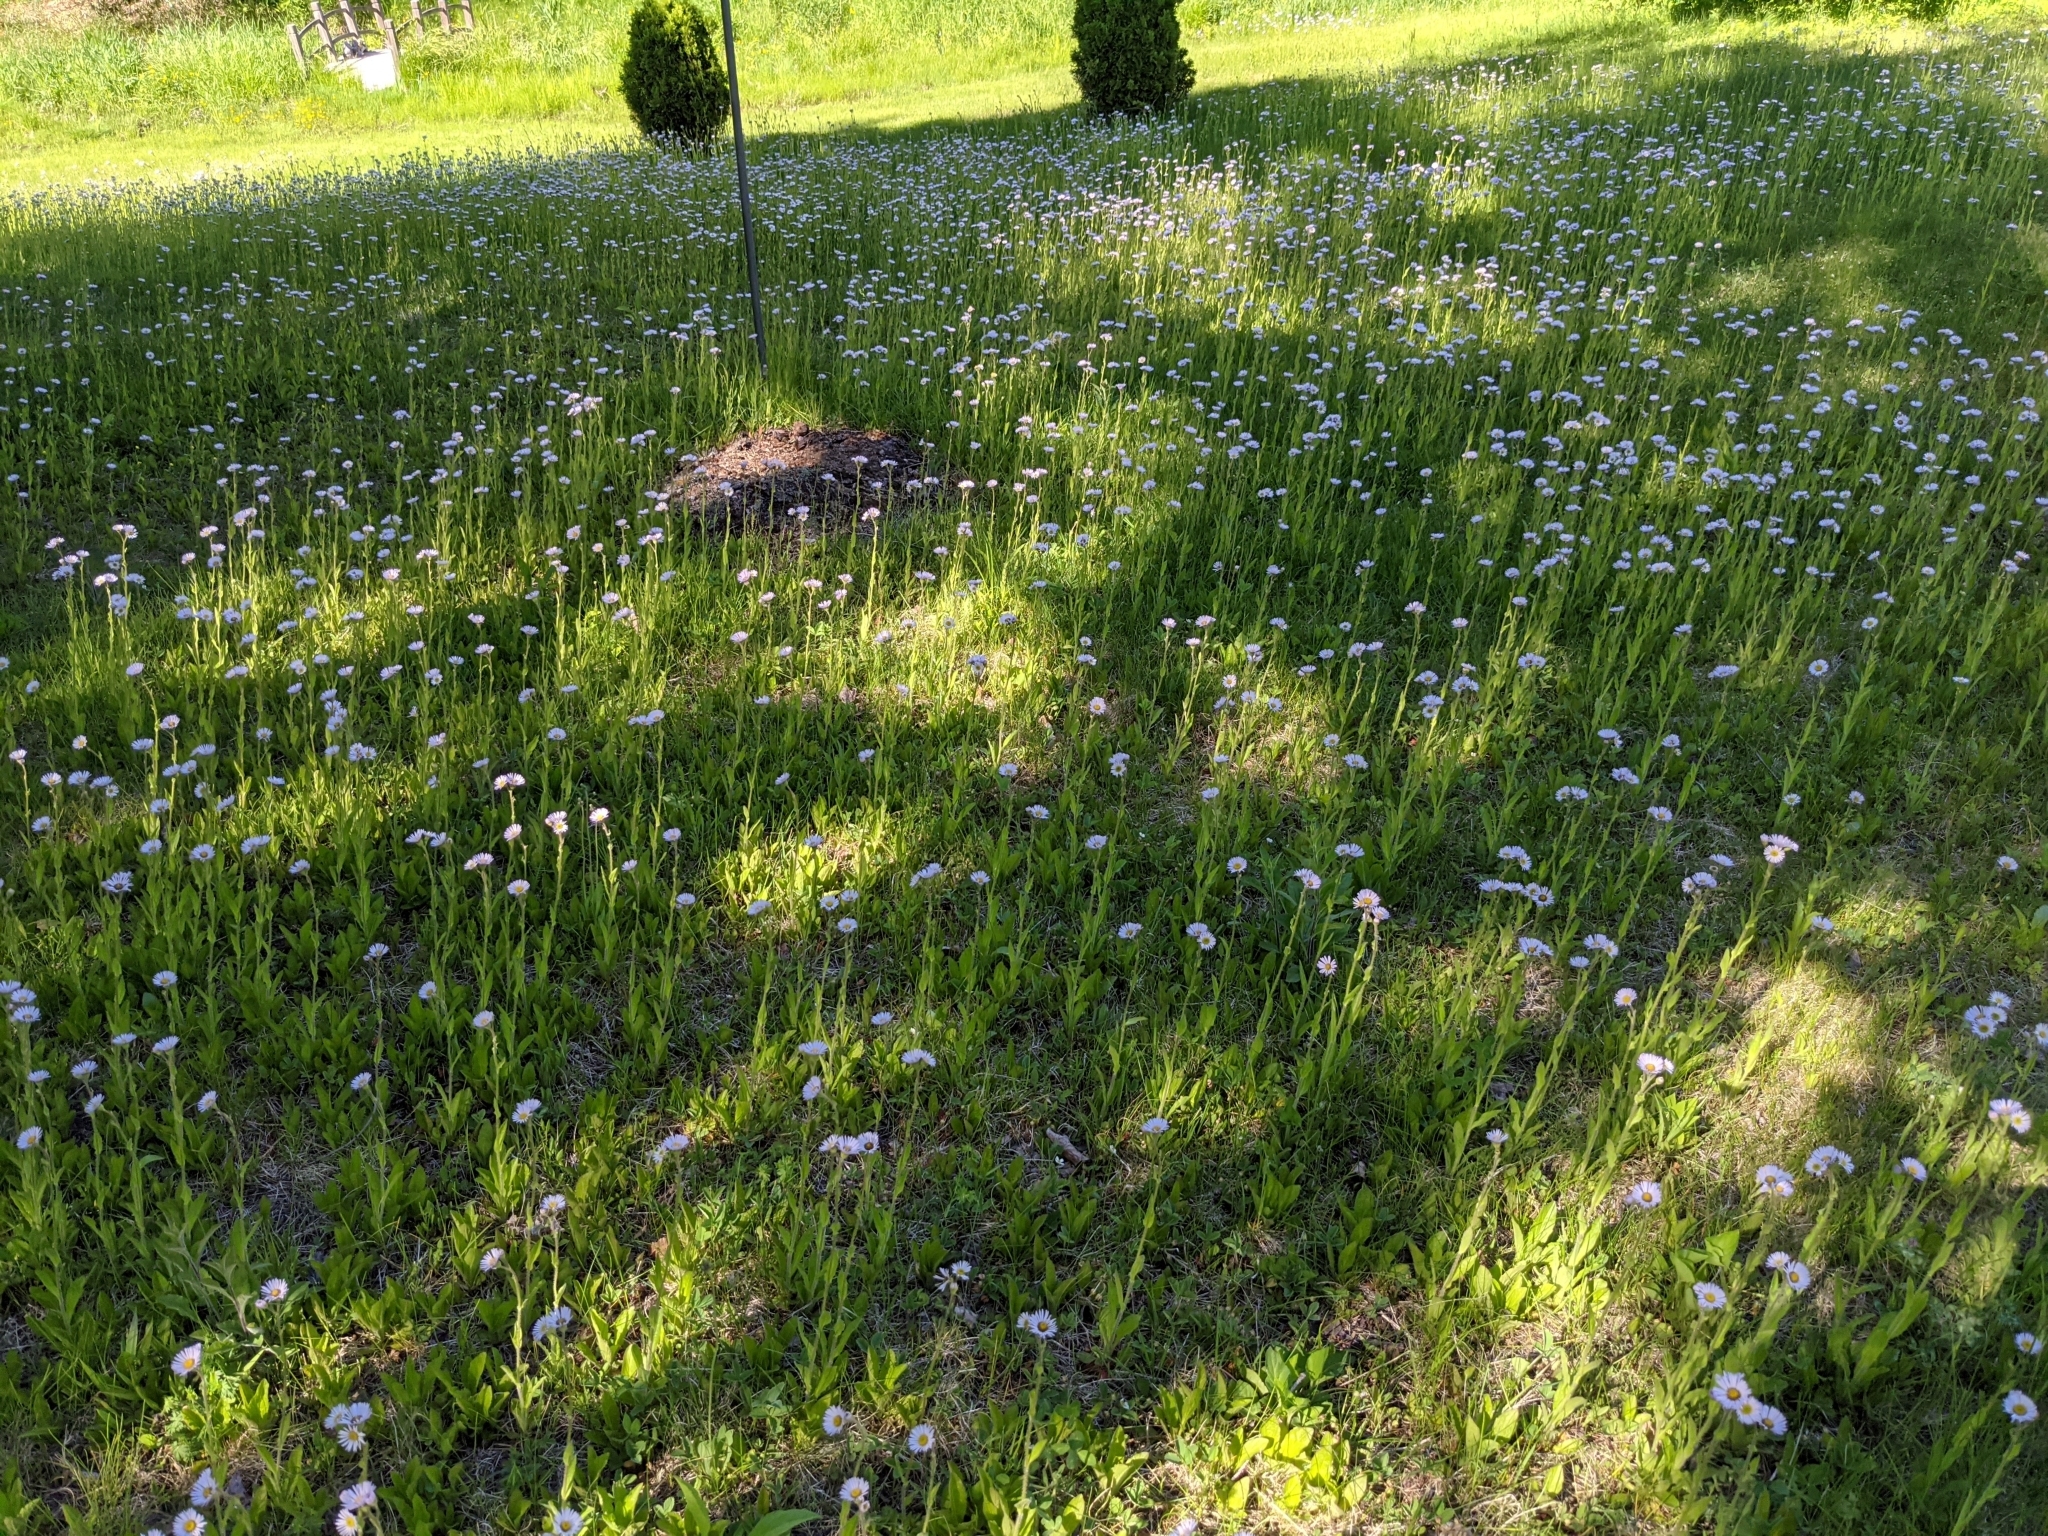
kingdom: Plantae
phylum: Tracheophyta
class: Magnoliopsida
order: Asterales
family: Asteraceae
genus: Erigeron
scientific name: Erigeron pulchellus
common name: Hairy fleabane
